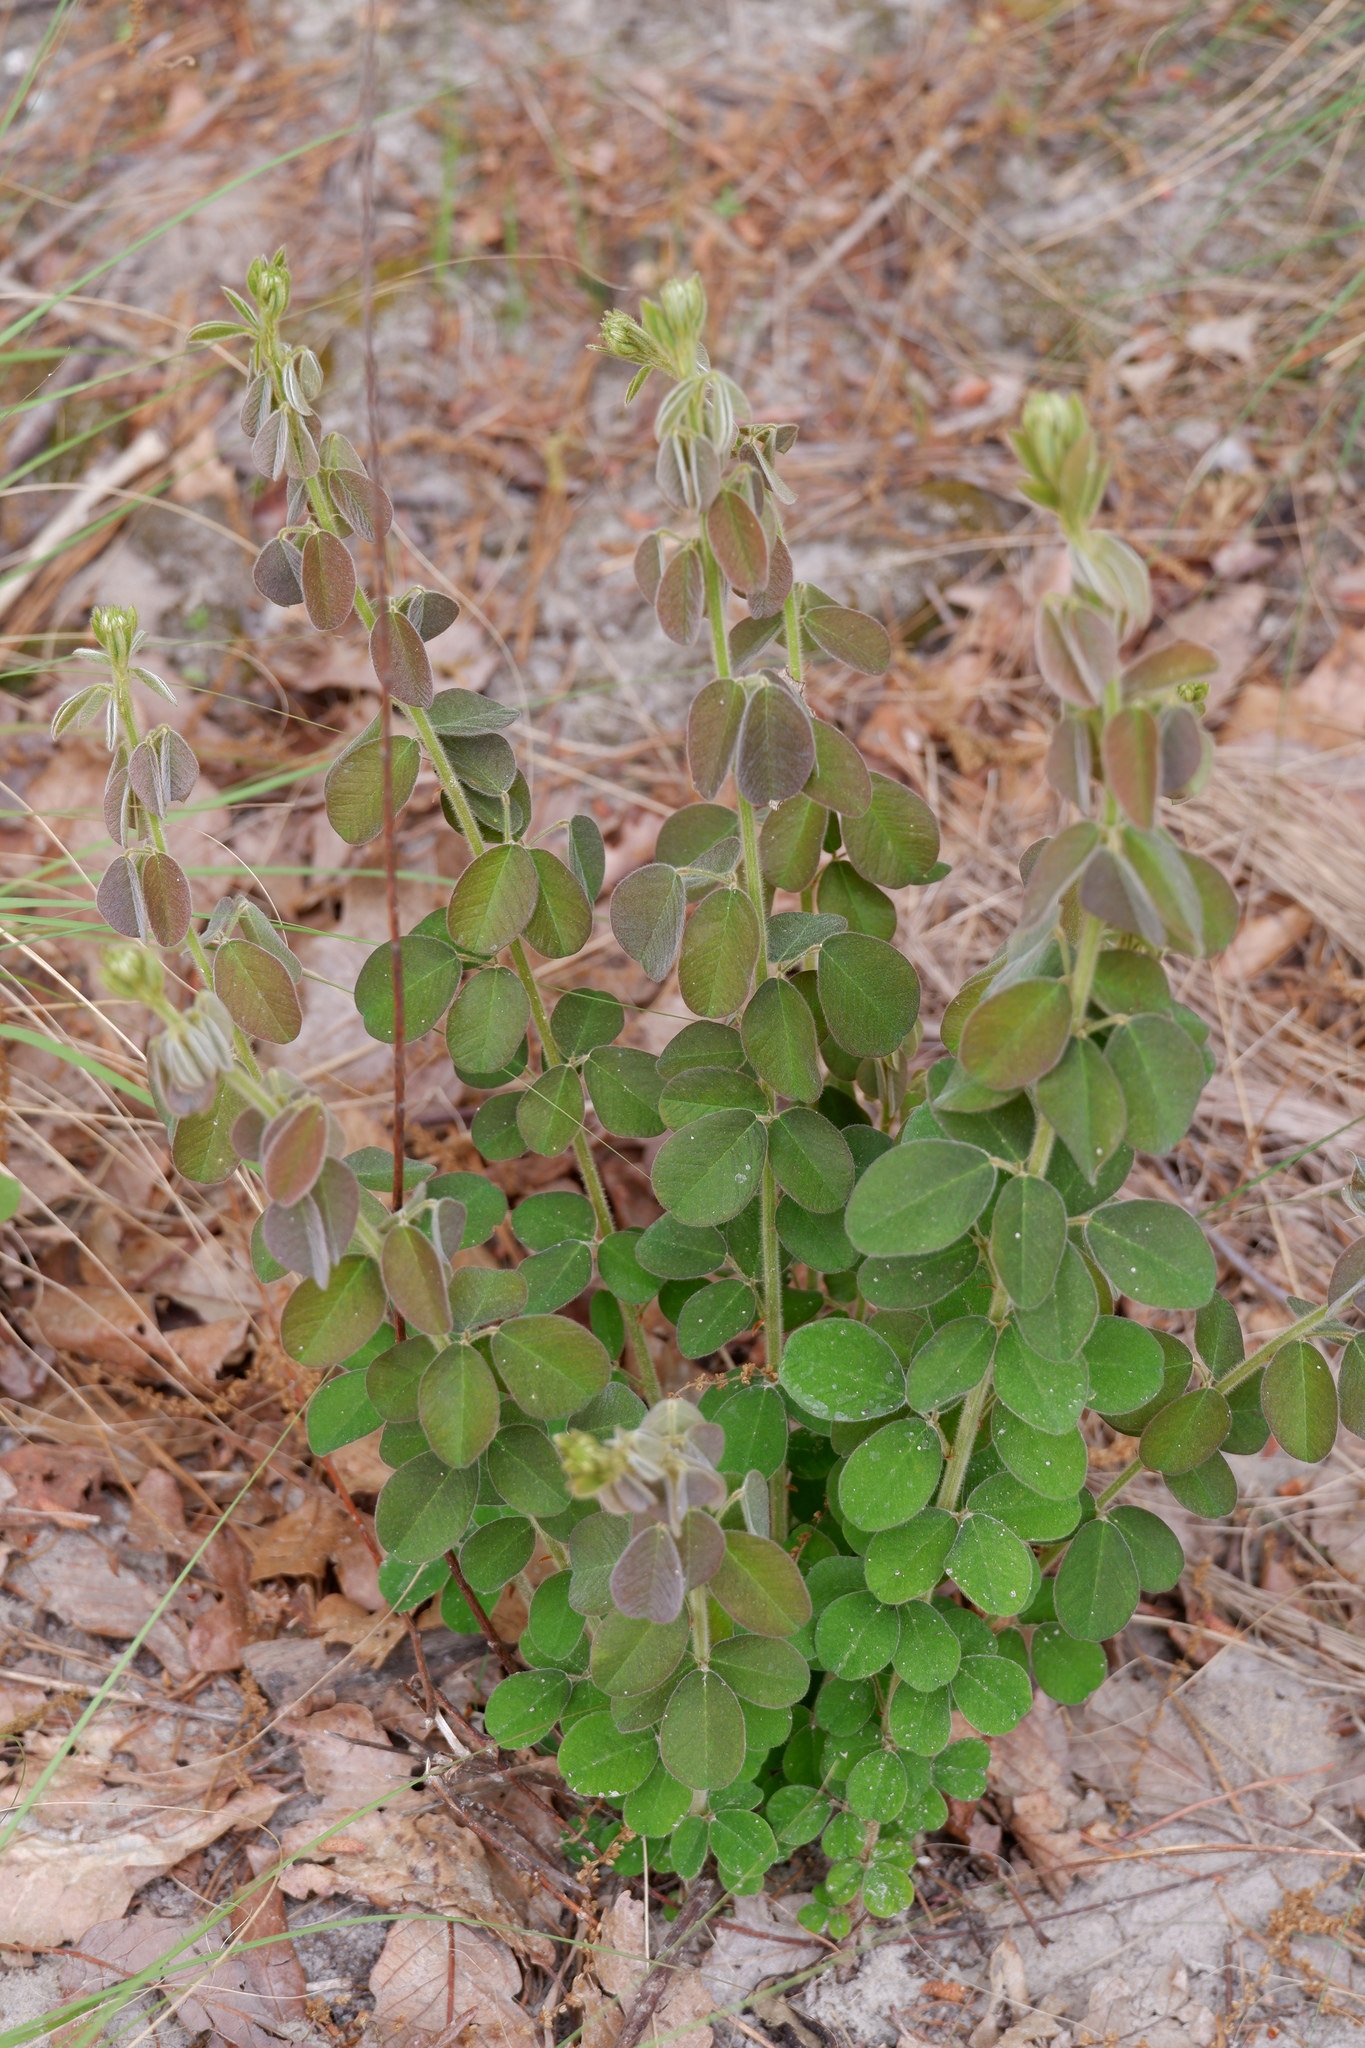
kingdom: Plantae
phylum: Tracheophyta
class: Magnoliopsida
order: Fabales
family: Fabaceae
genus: Lespedeza
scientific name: Lespedeza hirta
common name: Hairy lespedeza
